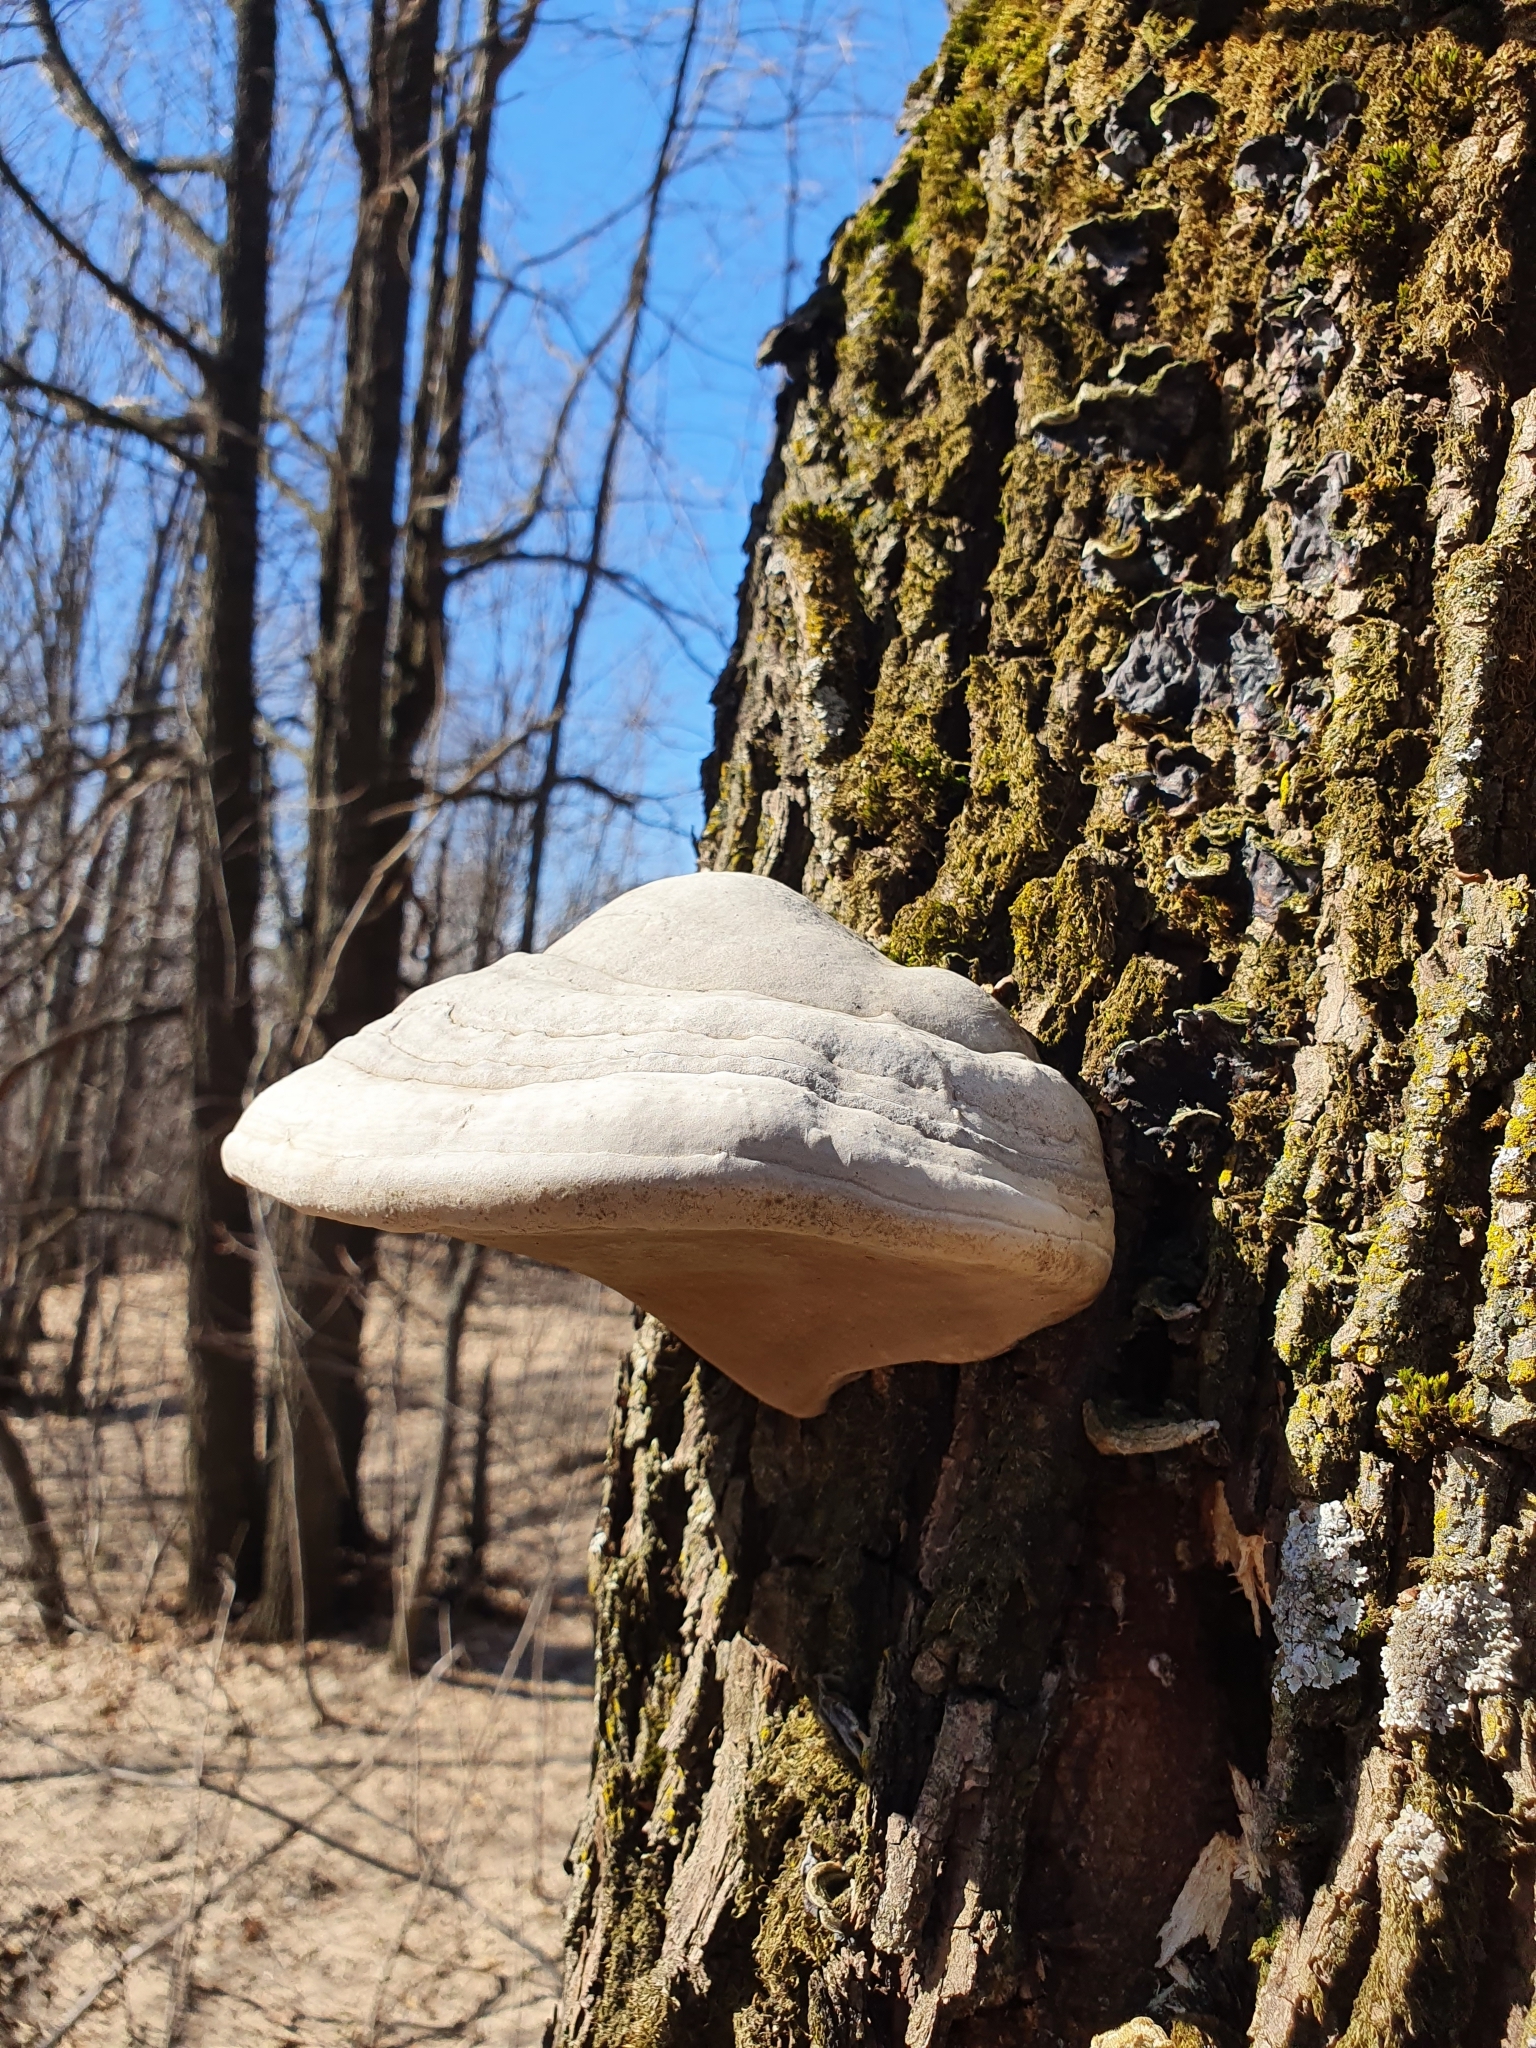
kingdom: Fungi
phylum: Basidiomycota
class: Agaricomycetes
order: Polyporales
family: Polyporaceae
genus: Fomes
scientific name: Fomes fomentarius
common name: Hoof fungus
